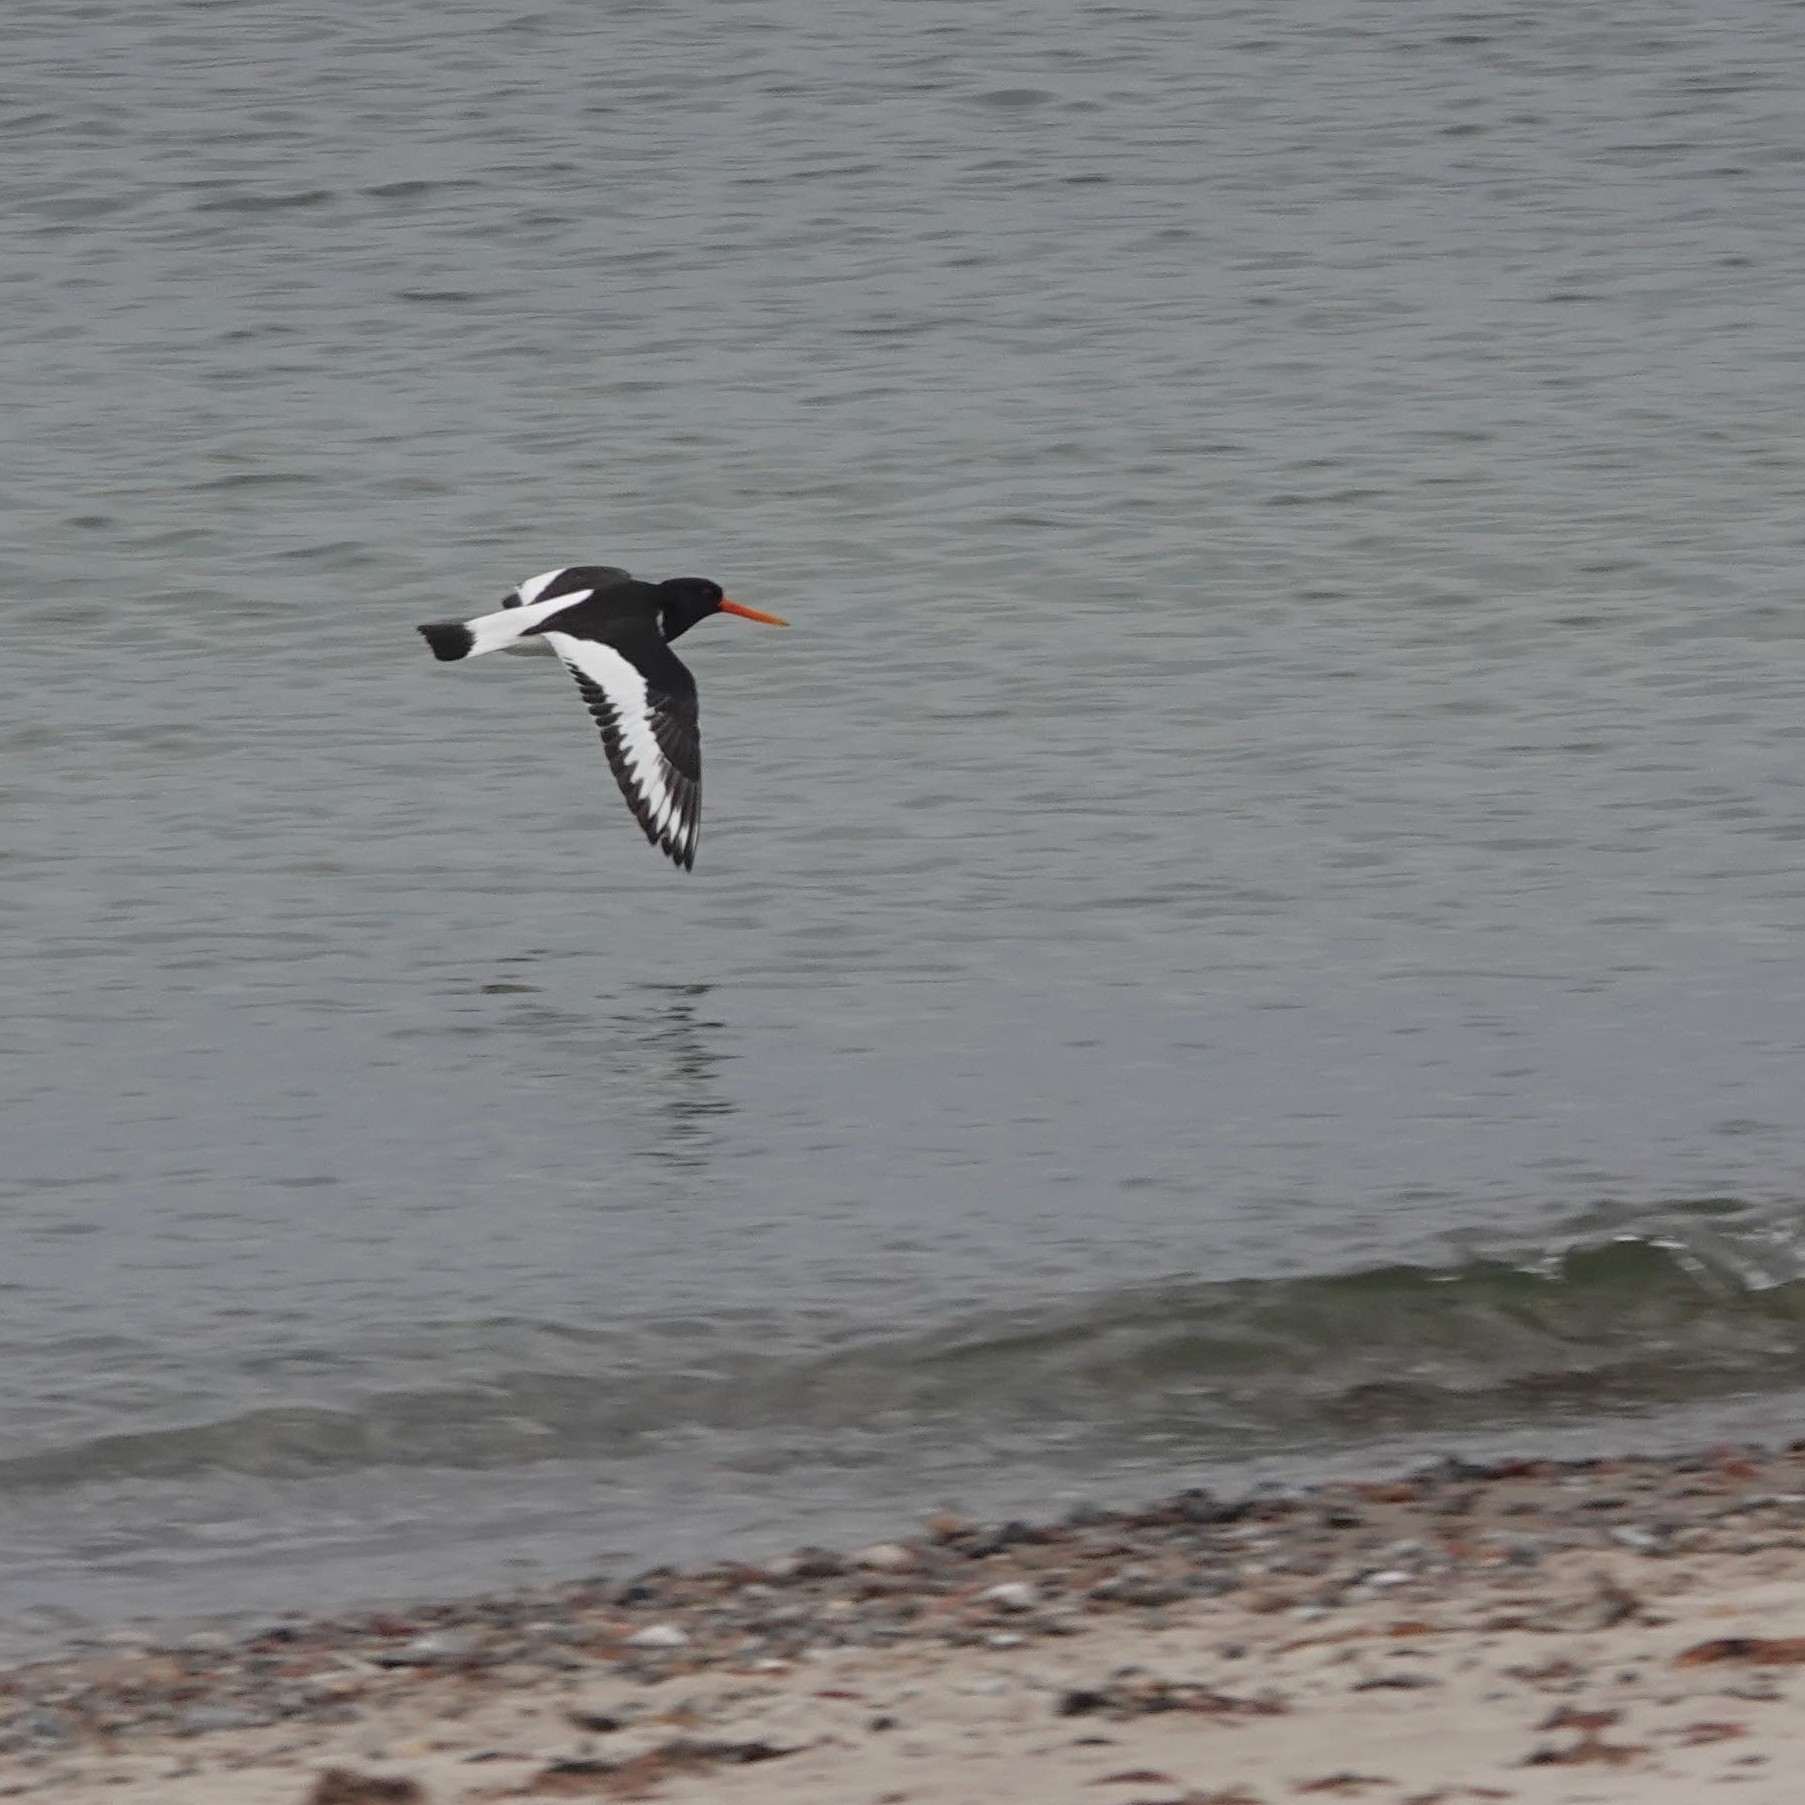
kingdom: Animalia
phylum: Chordata
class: Aves
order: Charadriiformes
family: Haematopodidae
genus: Haematopus
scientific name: Haematopus ostralegus
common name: Eurasian oystercatcher
